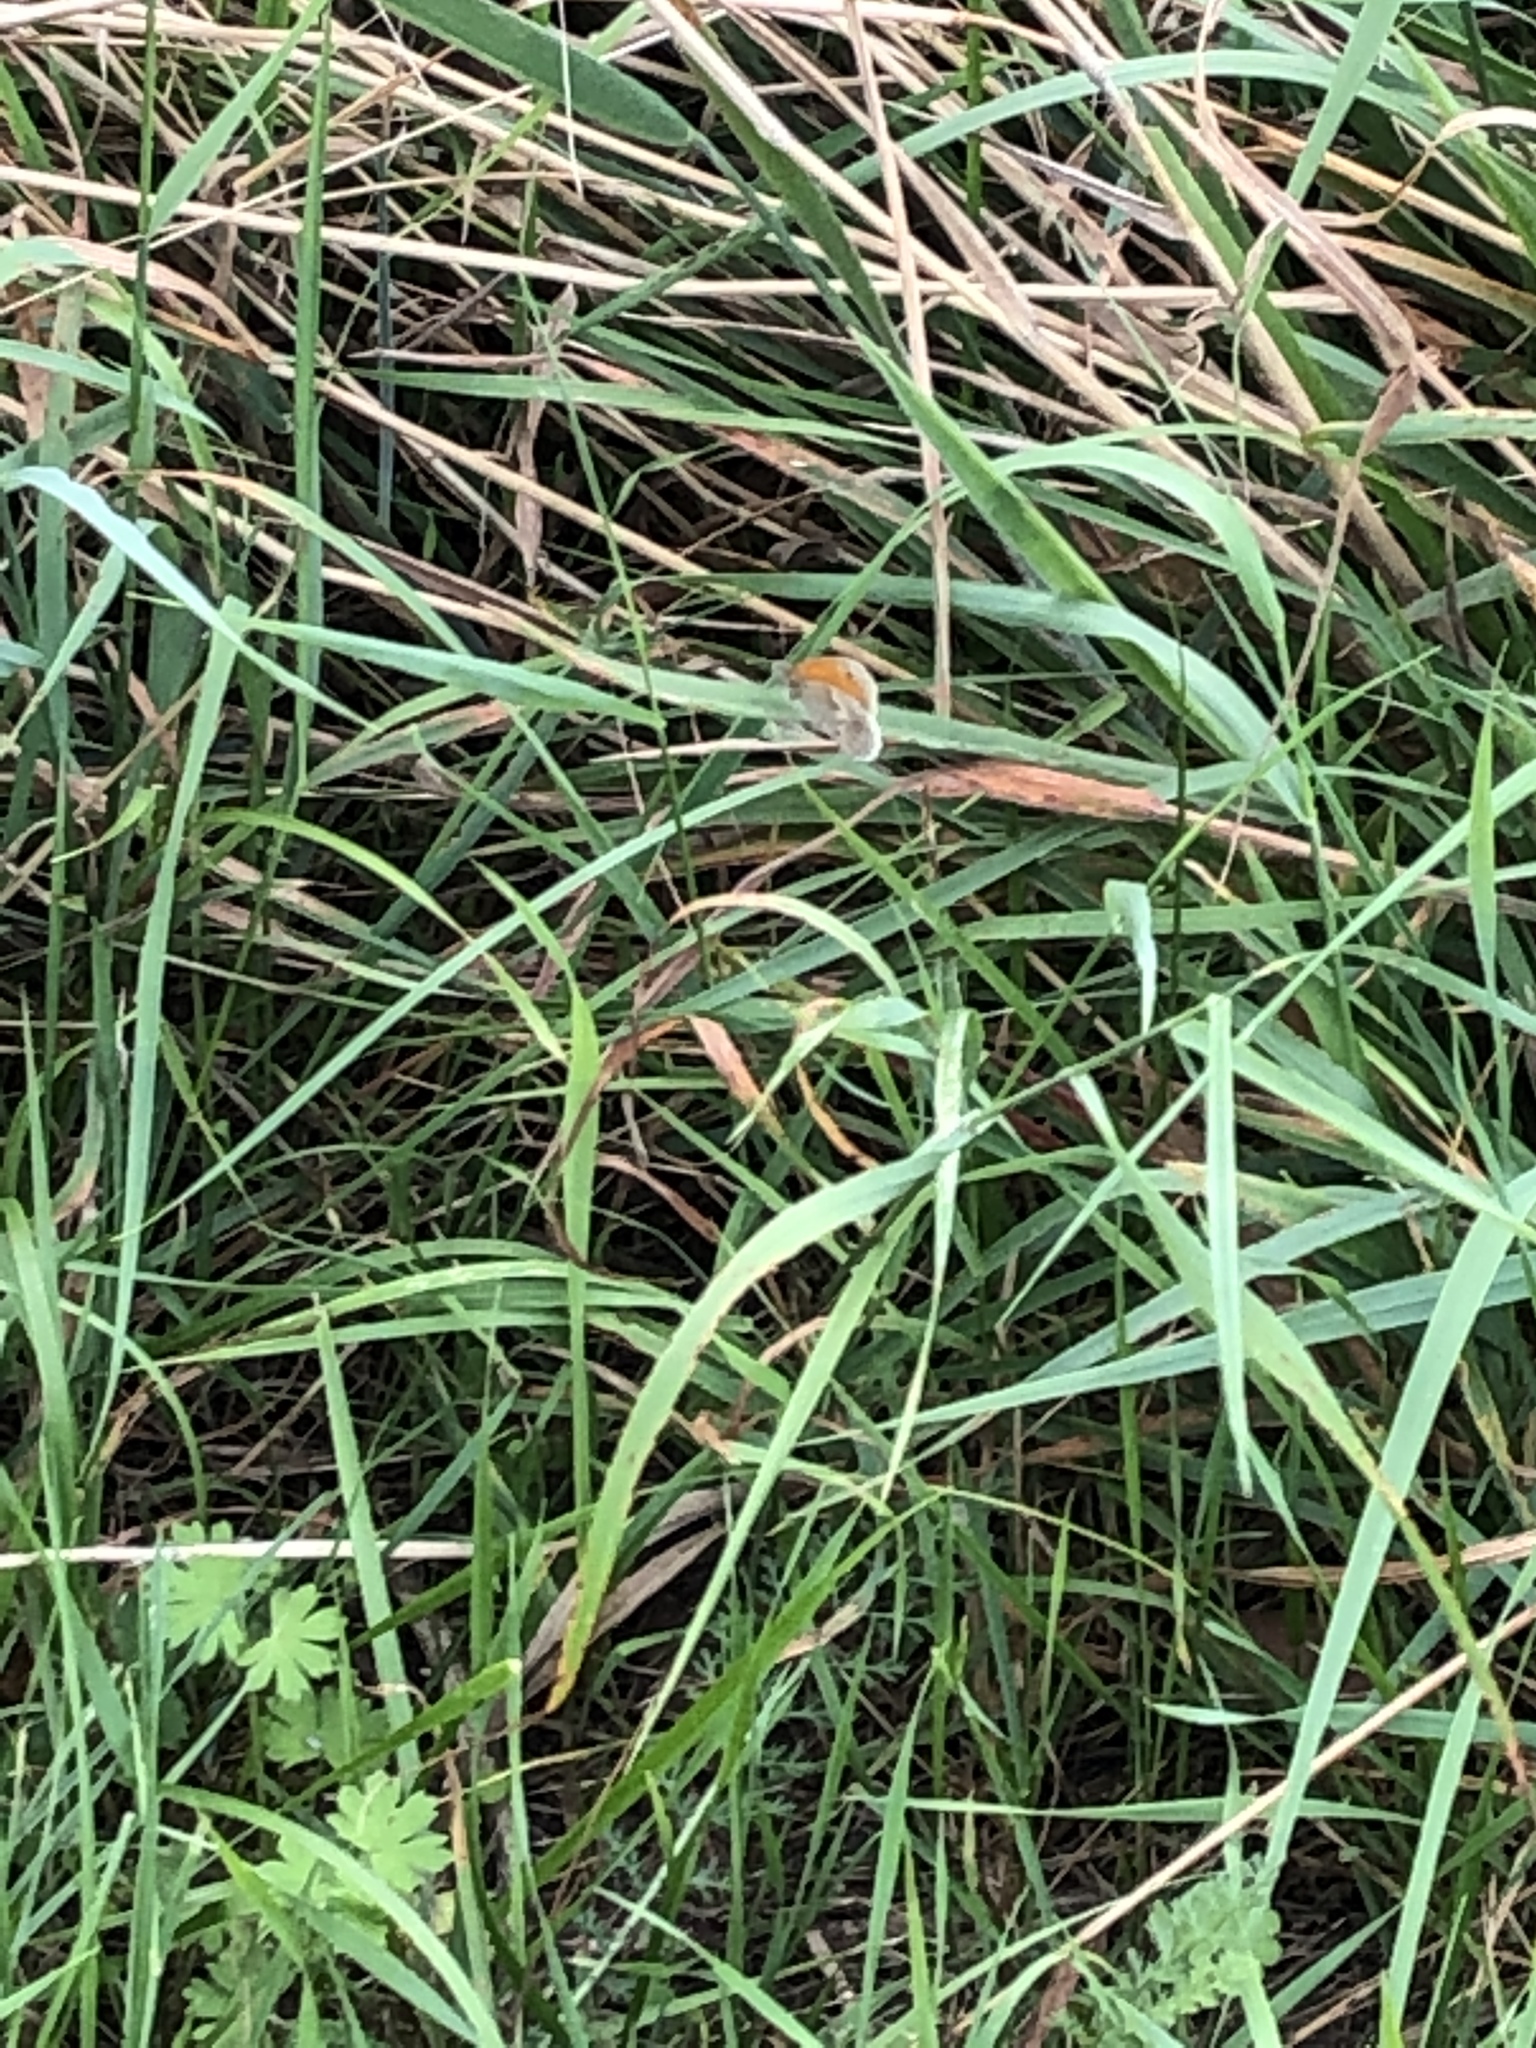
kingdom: Animalia
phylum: Arthropoda
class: Insecta
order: Lepidoptera
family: Nymphalidae
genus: Coenonympha
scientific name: Coenonympha pamphilus
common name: Small heath
